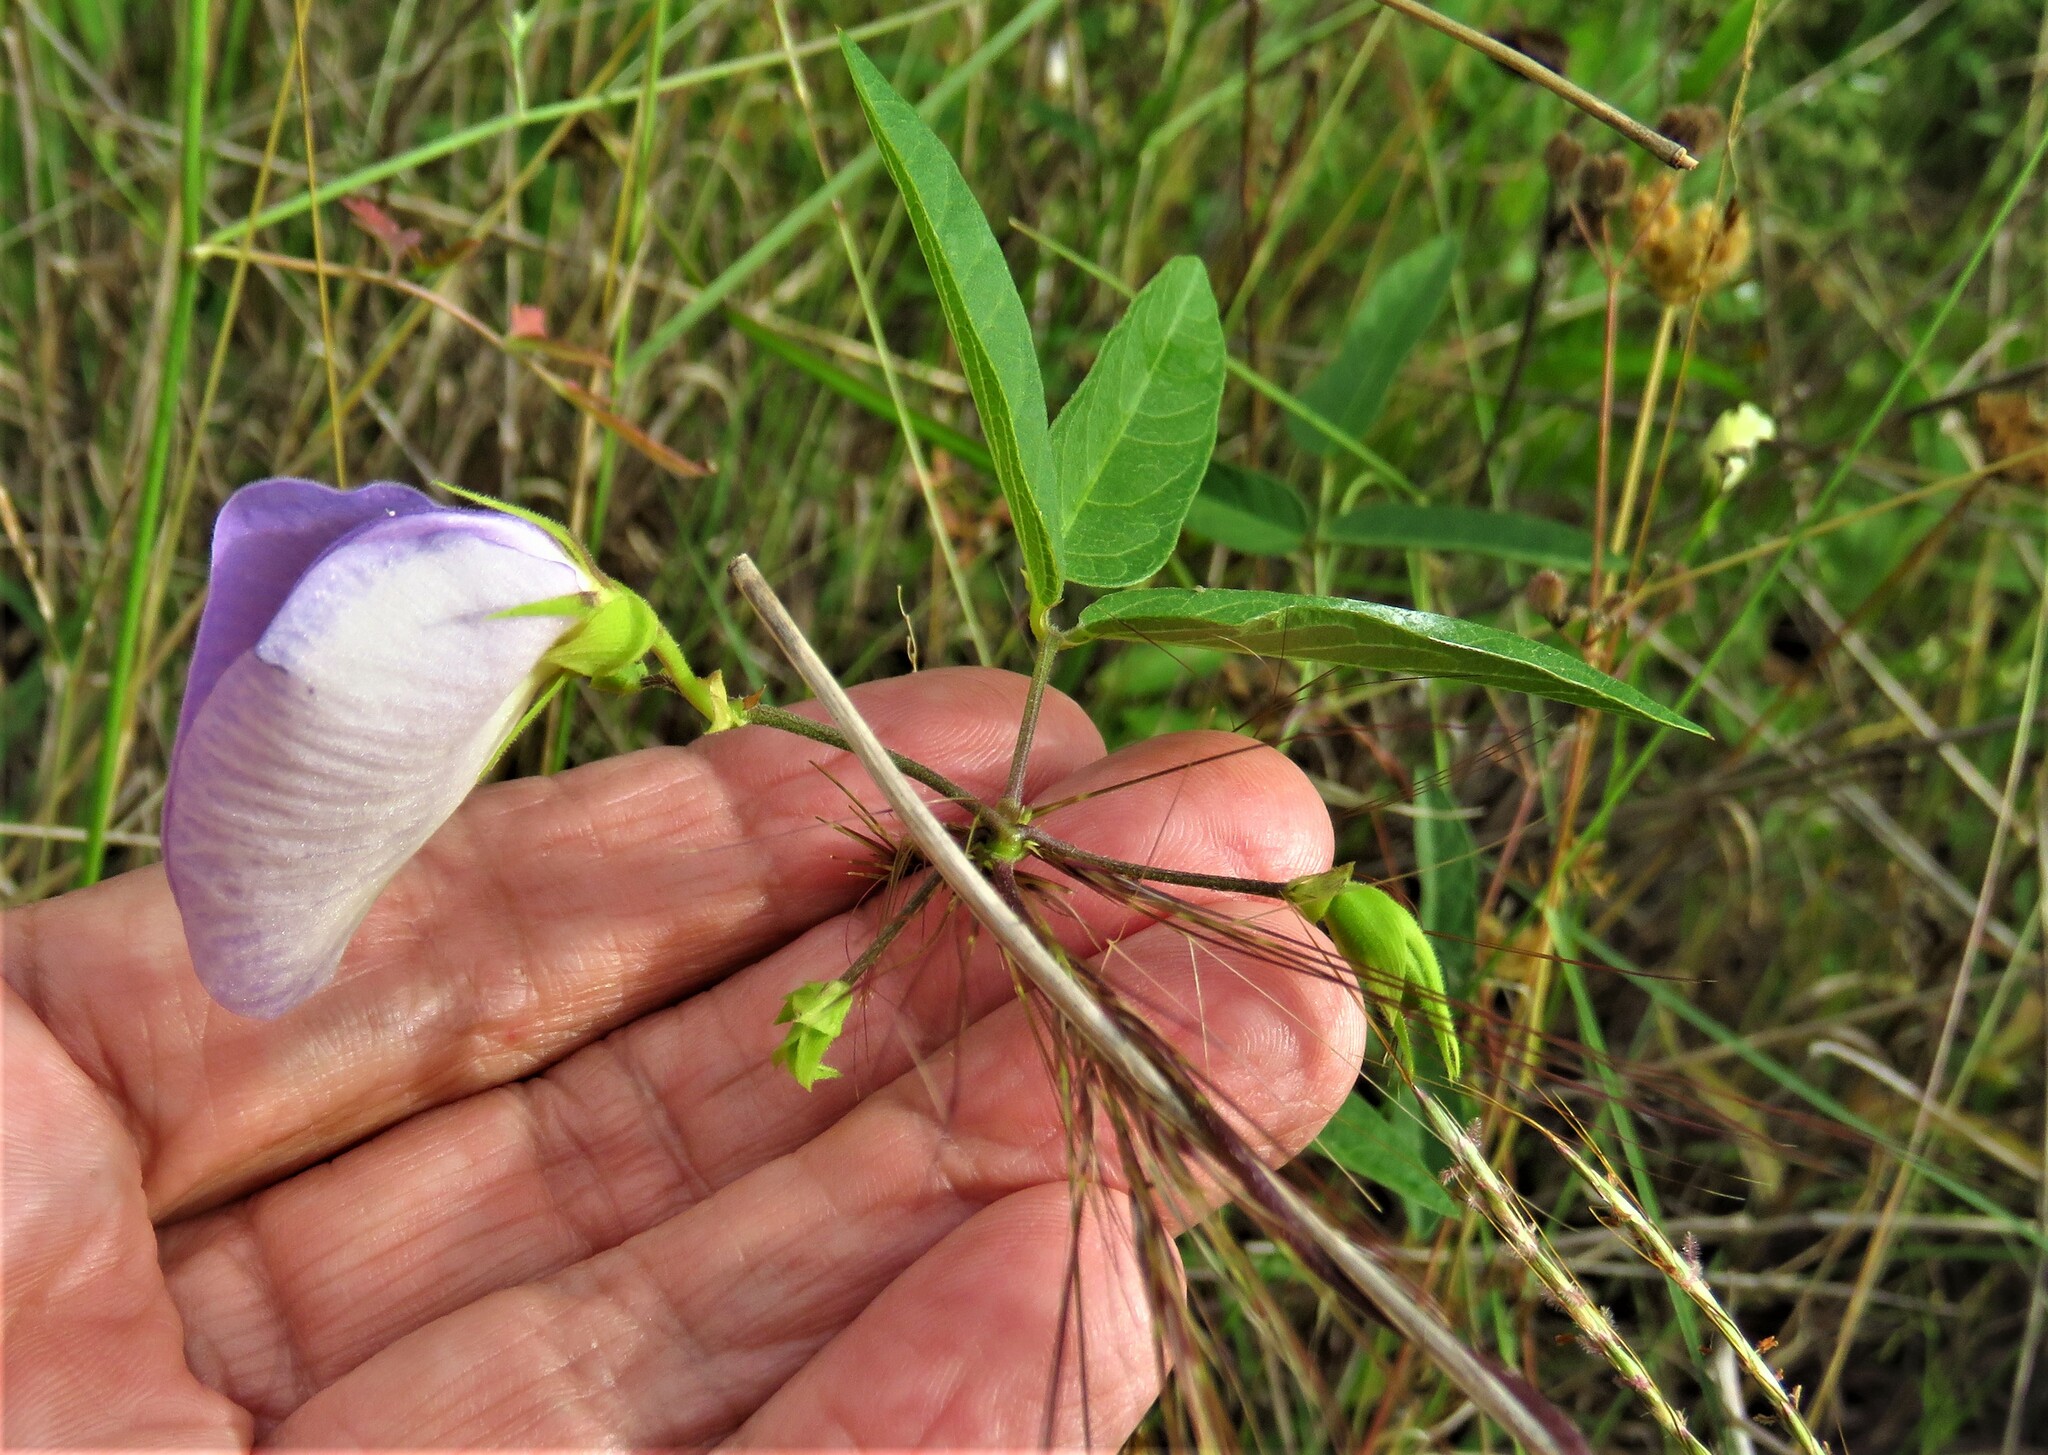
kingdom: Plantae
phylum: Tracheophyta
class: Magnoliopsida
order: Fabales
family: Fabaceae
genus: Centrosema
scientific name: Centrosema virginianum
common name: Butterfly-pea
